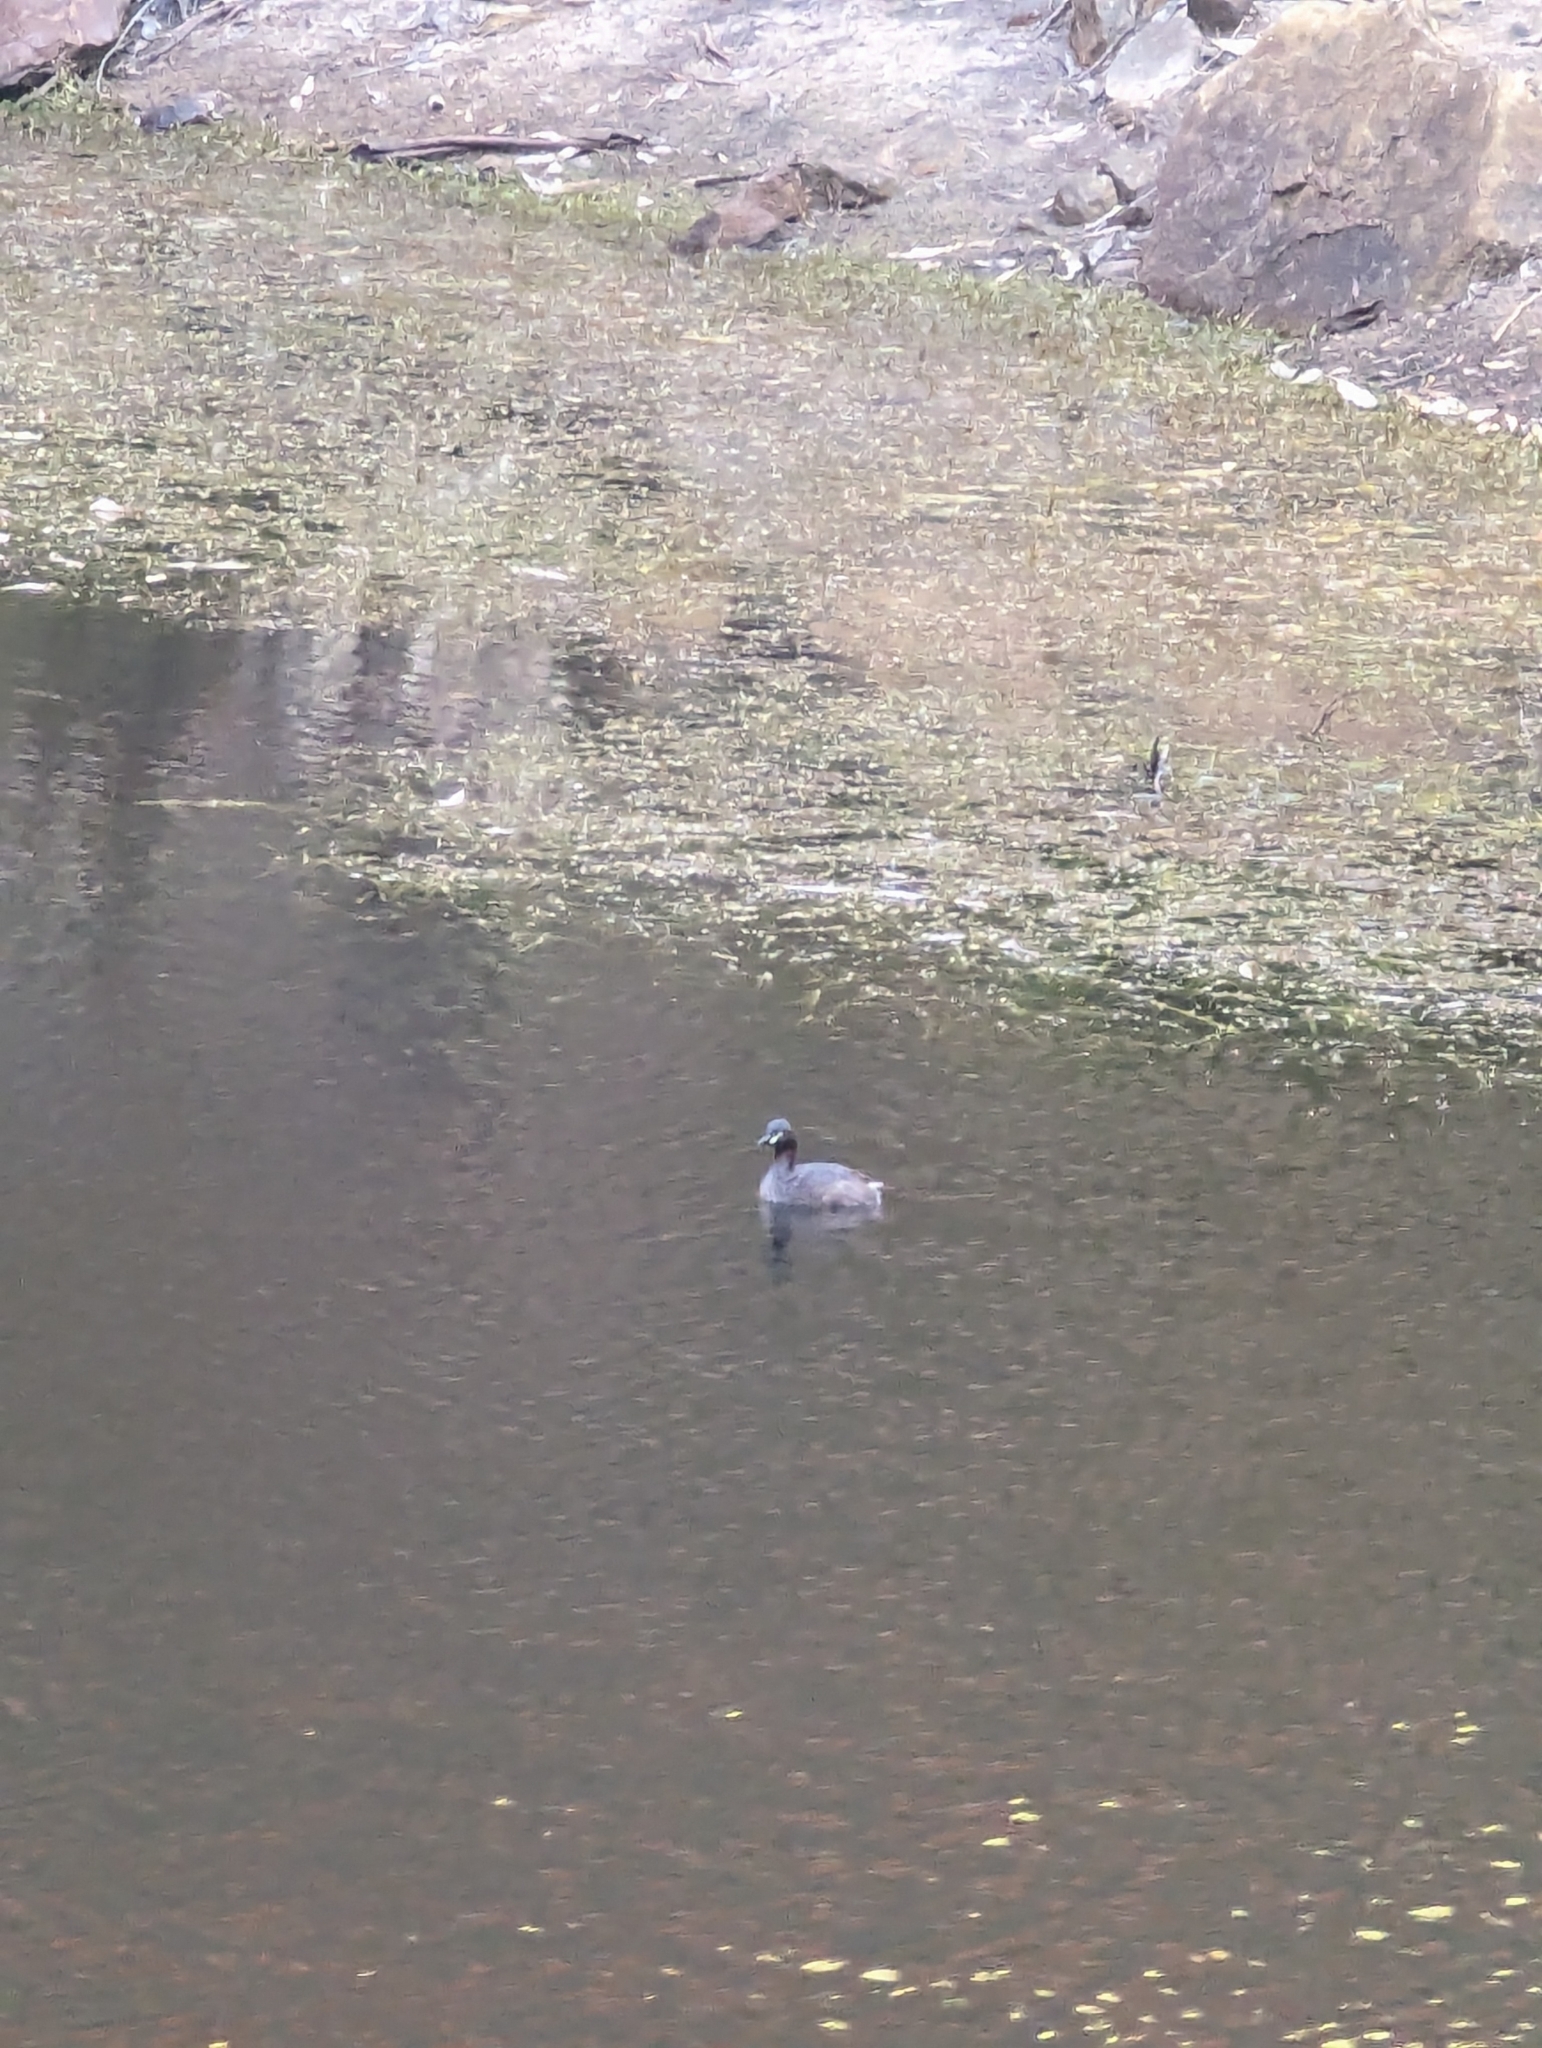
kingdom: Animalia
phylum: Chordata
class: Aves
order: Podicipediformes
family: Podicipedidae
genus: Tachybaptus
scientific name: Tachybaptus novaehollandiae
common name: Australasian grebe
